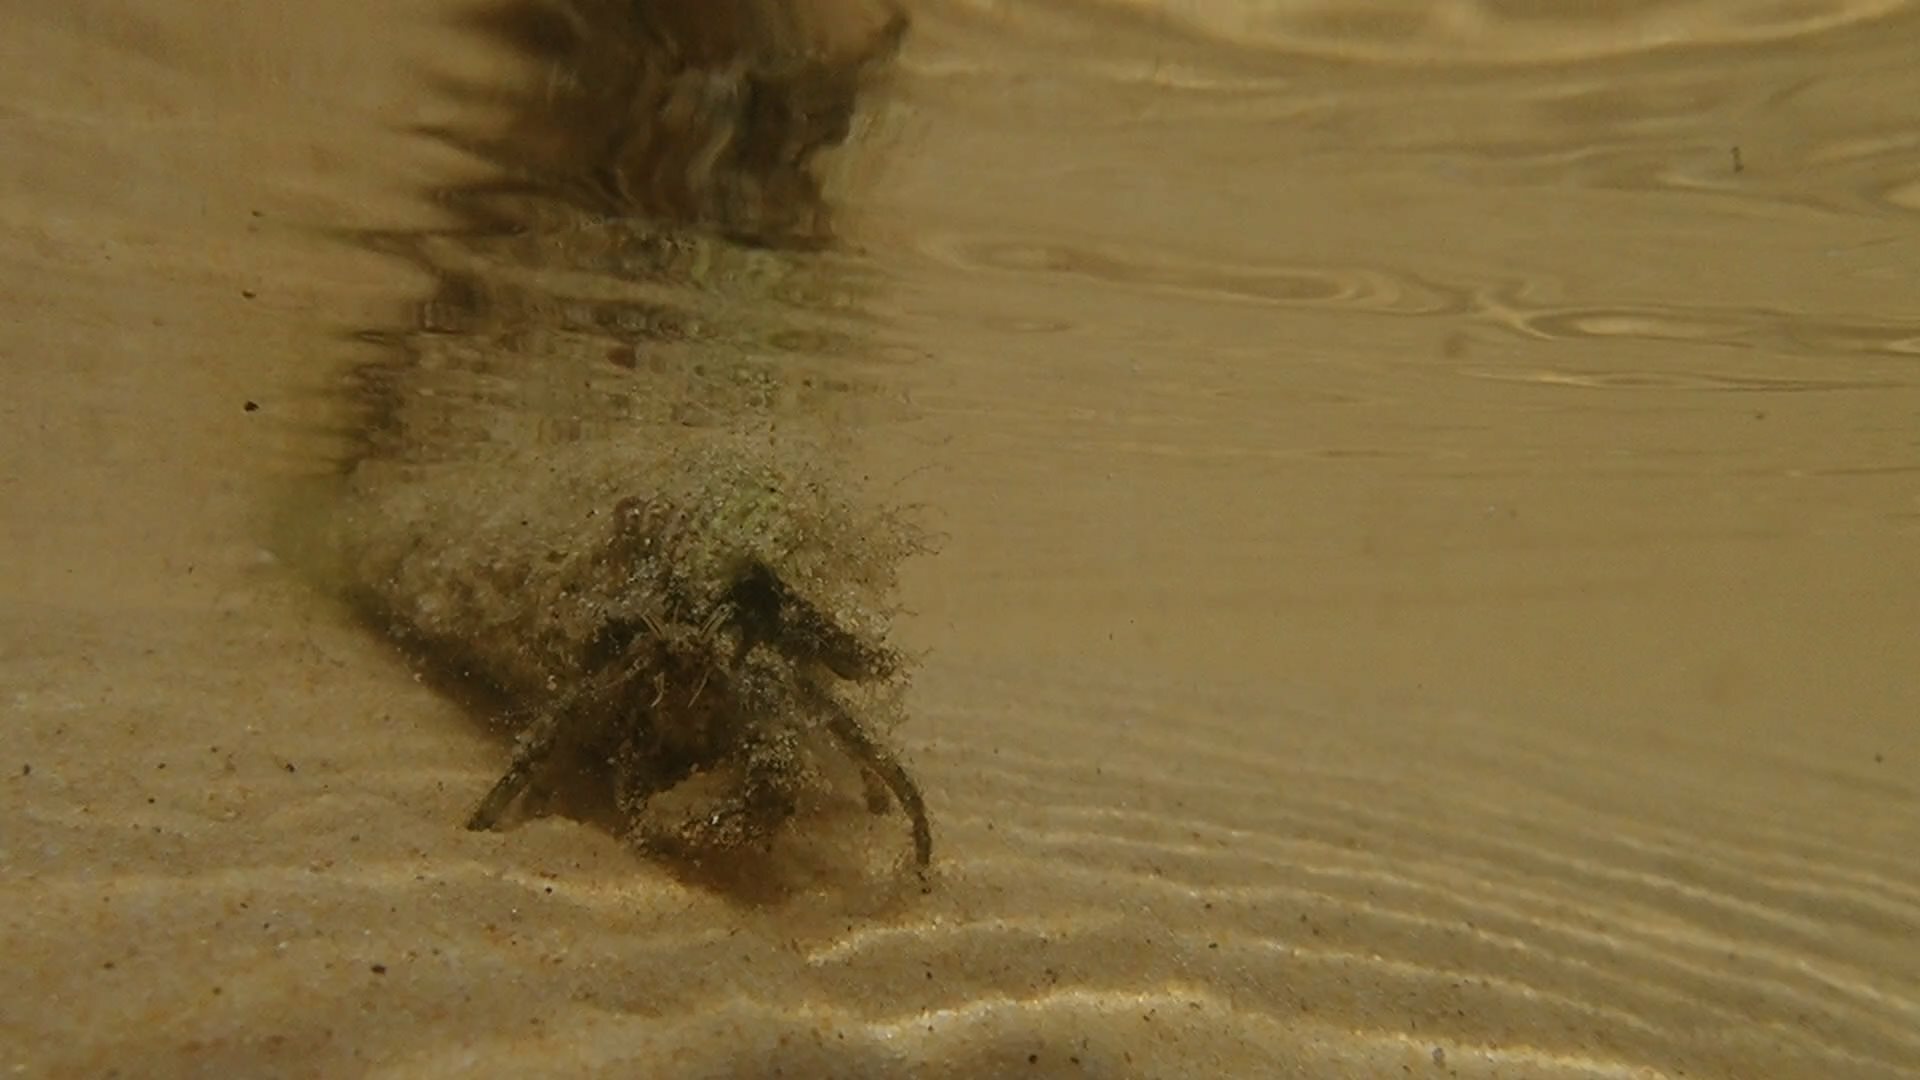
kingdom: Animalia
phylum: Arthropoda
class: Malacostraca
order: Decapoda
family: Diogenidae
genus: Diogenes
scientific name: Diogenes senex
